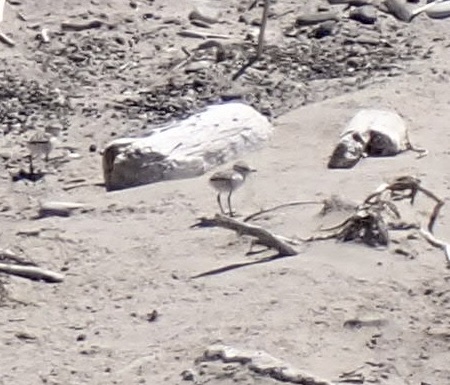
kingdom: Animalia
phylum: Chordata
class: Aves
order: Charadriiformes
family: Charadriidae
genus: Anarhynchus
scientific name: Anarhynchus
